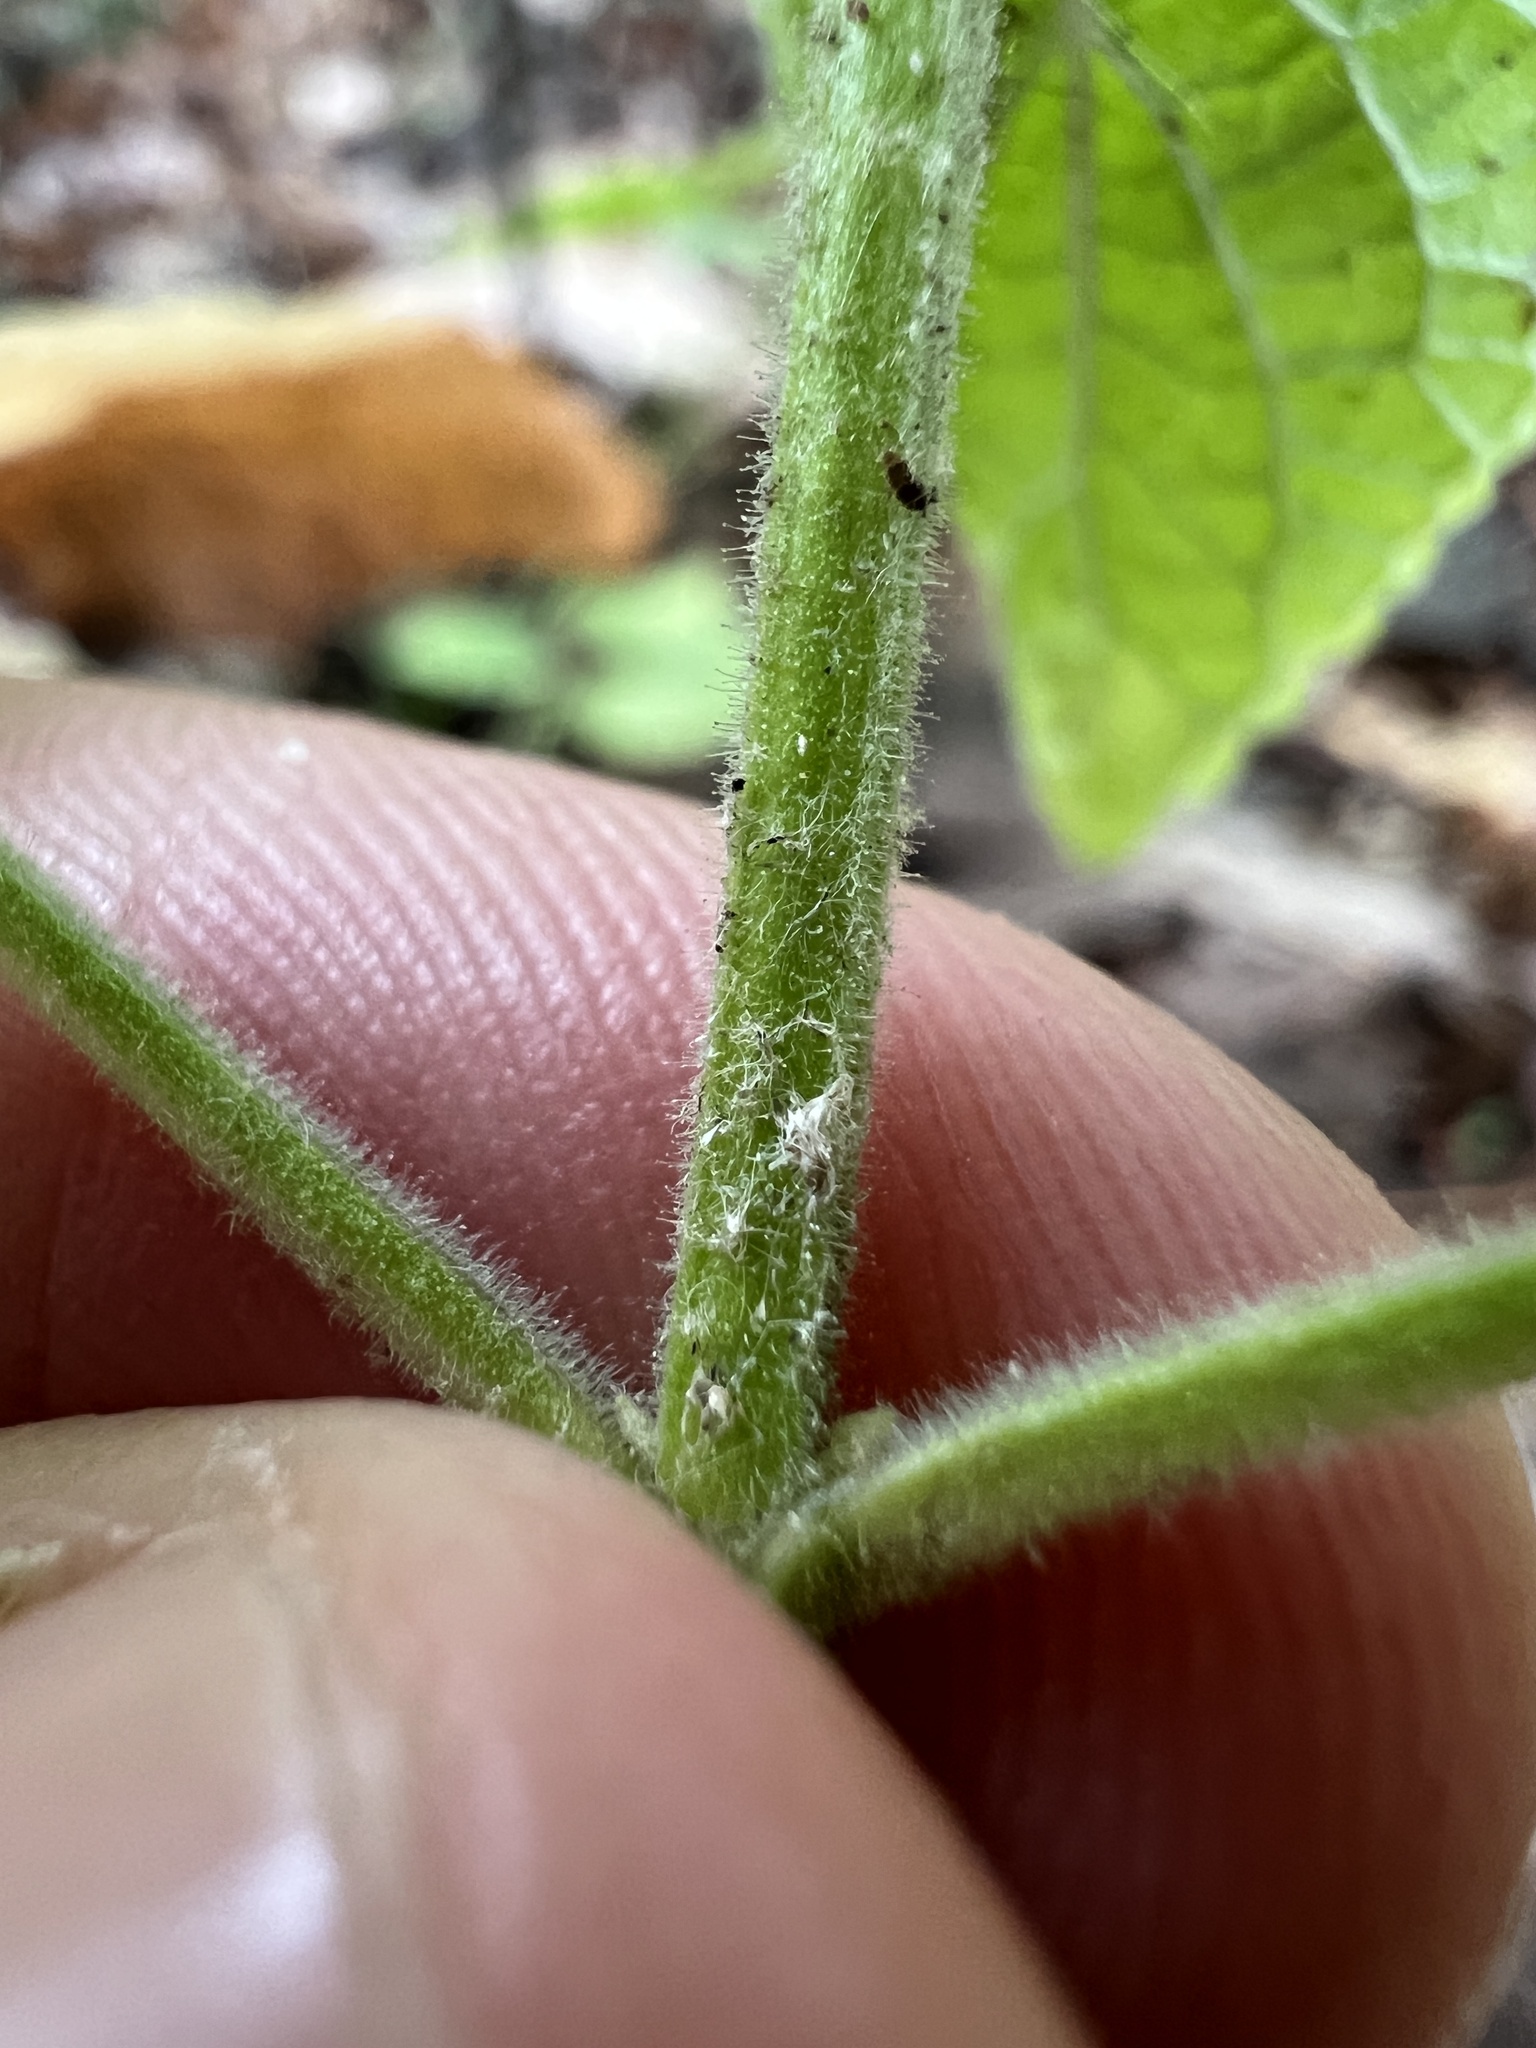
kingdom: Plantae
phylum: Tracheophyta
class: Magnoliopsida
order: Lamiales
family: Lamiaceae
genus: Scutellaria
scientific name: Scutellaria ovata
